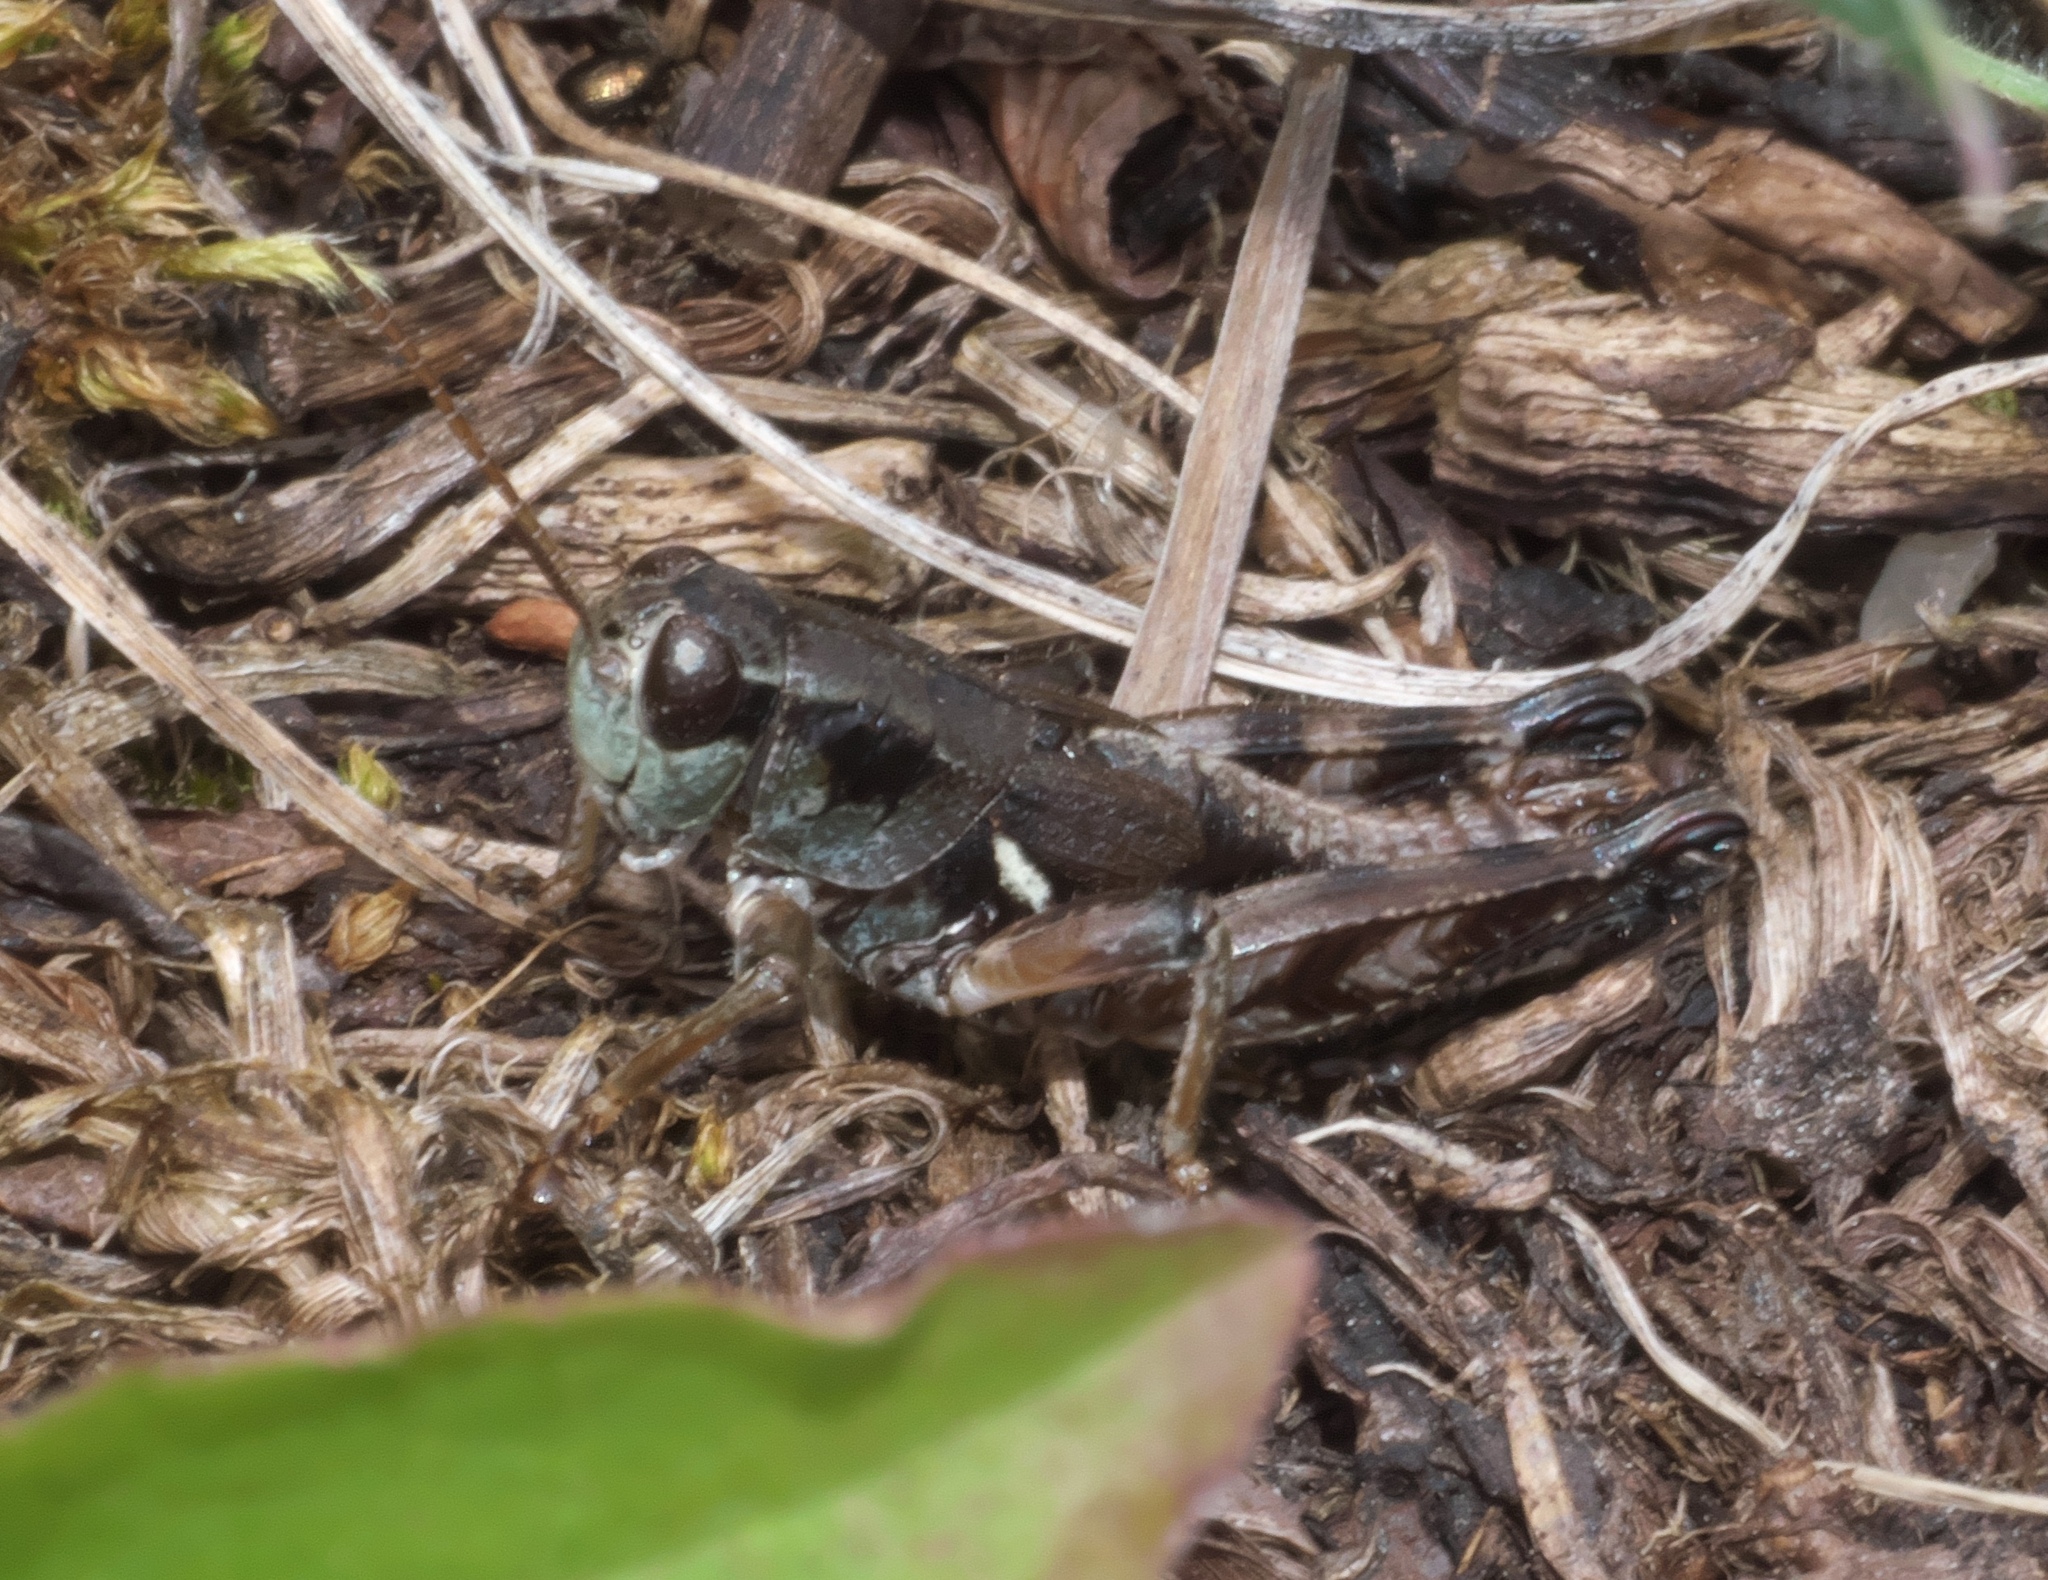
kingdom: Animalia
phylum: Arthropoda
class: Insecta
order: Orthoptera
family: Acrididae
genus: Melanoplus
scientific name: Melanoplus oregonensis
